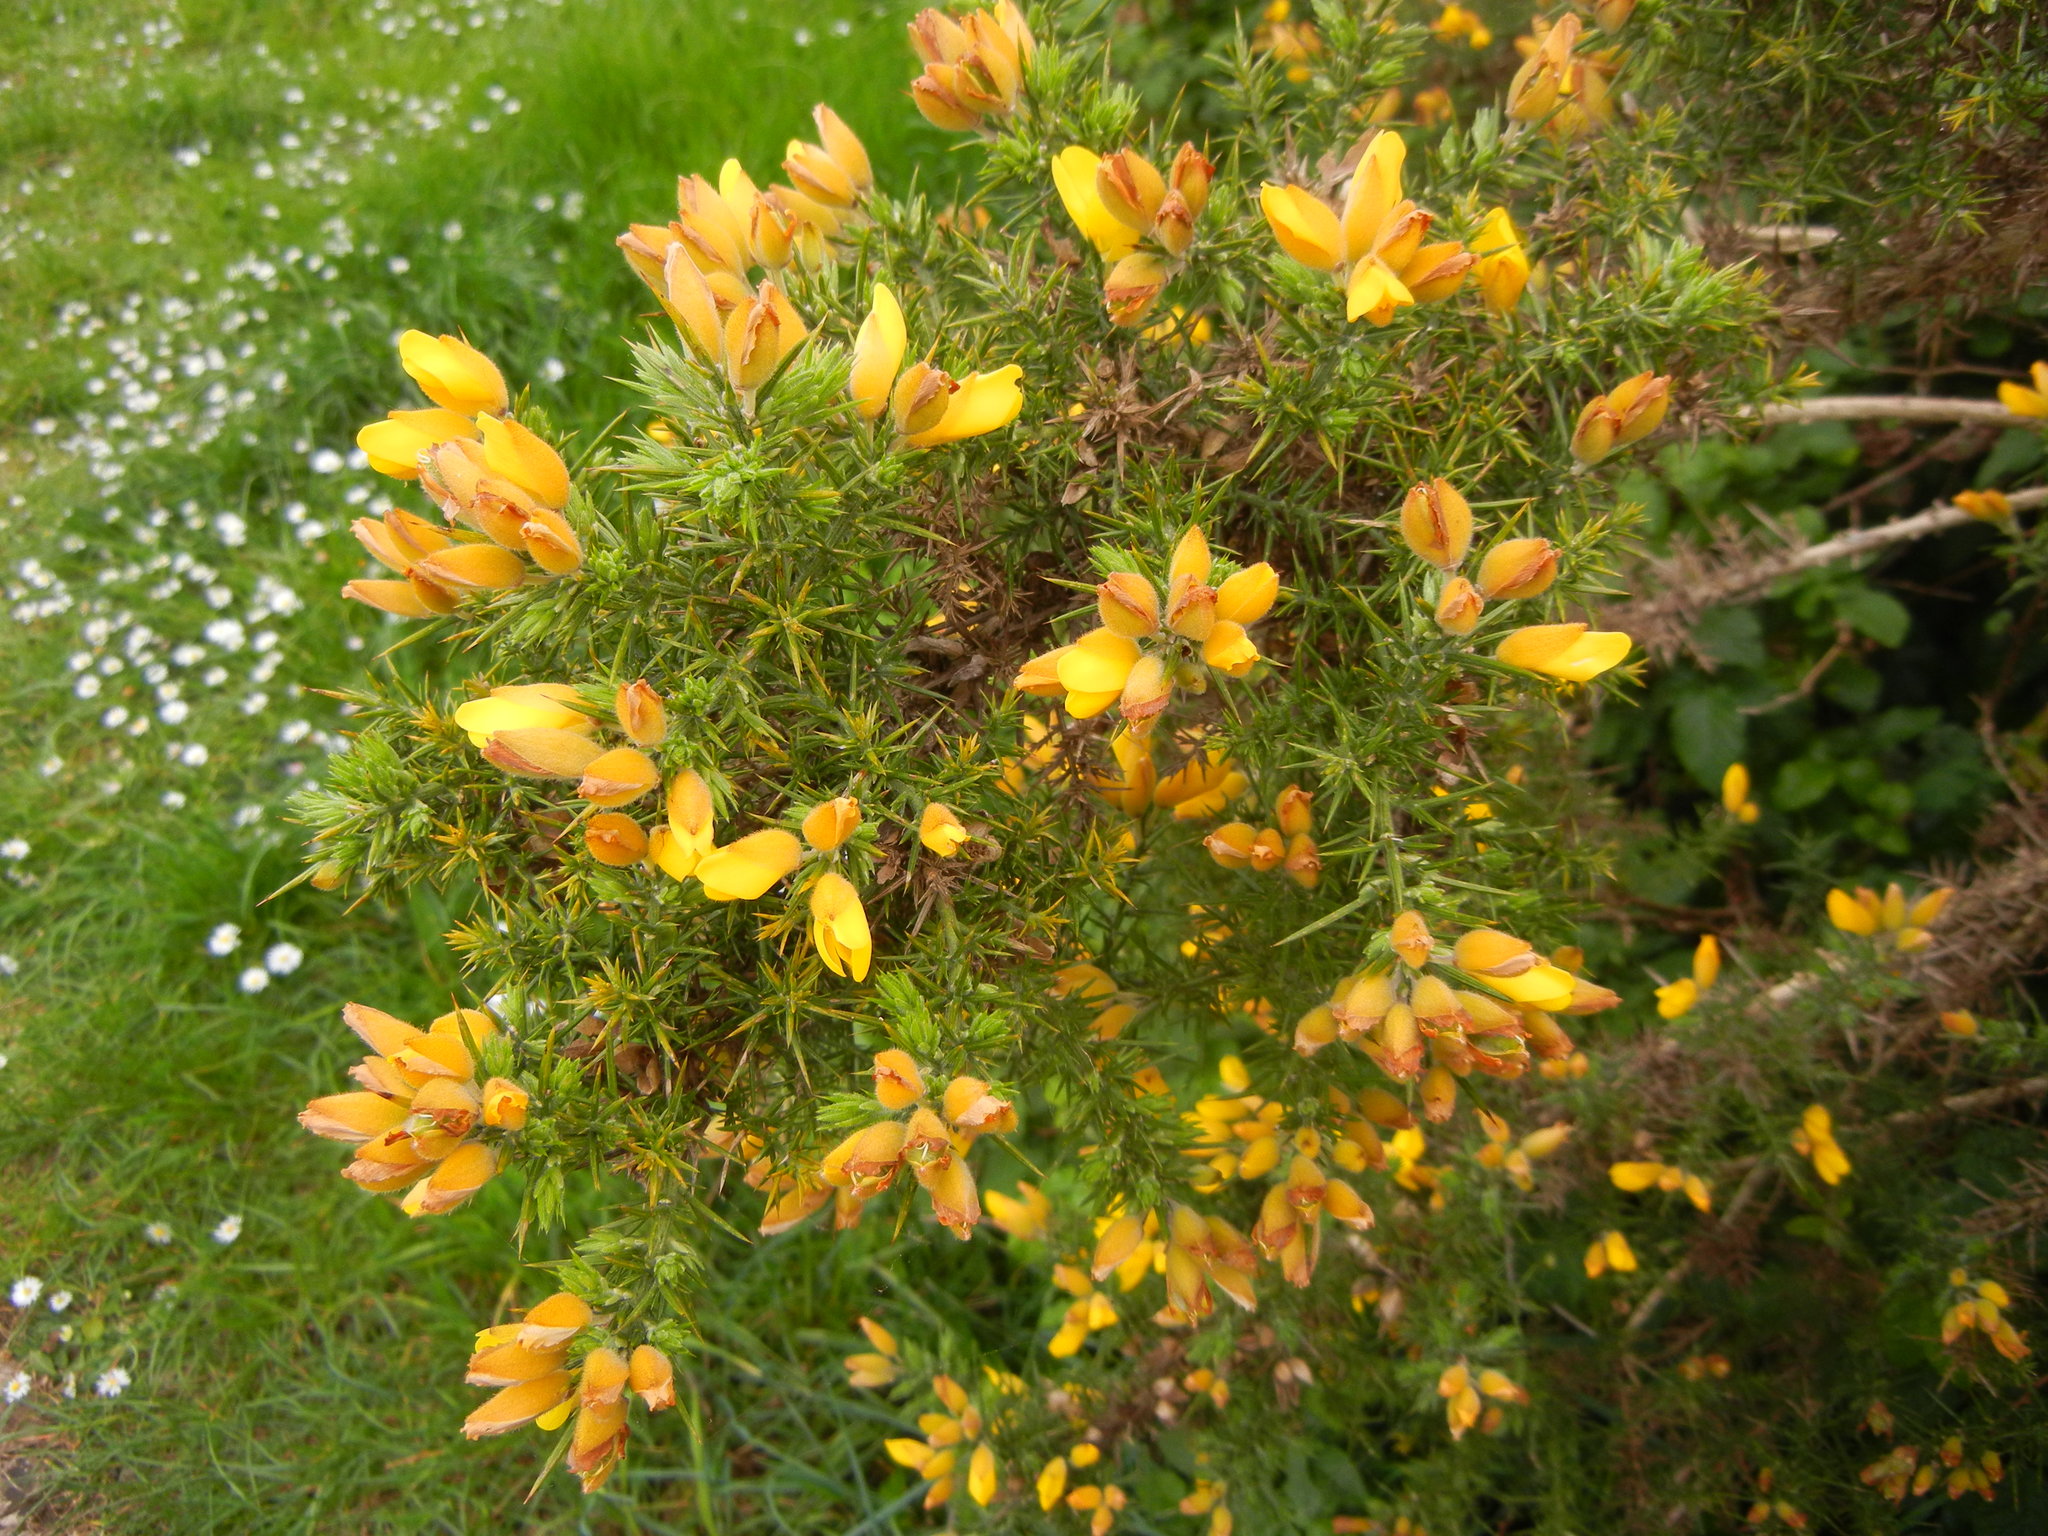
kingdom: Plantae
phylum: Tracheophyta
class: Magnoliopsida
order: Fabales
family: Fabaceae
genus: Ulex
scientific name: Ulex europaeus
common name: Common gorse
